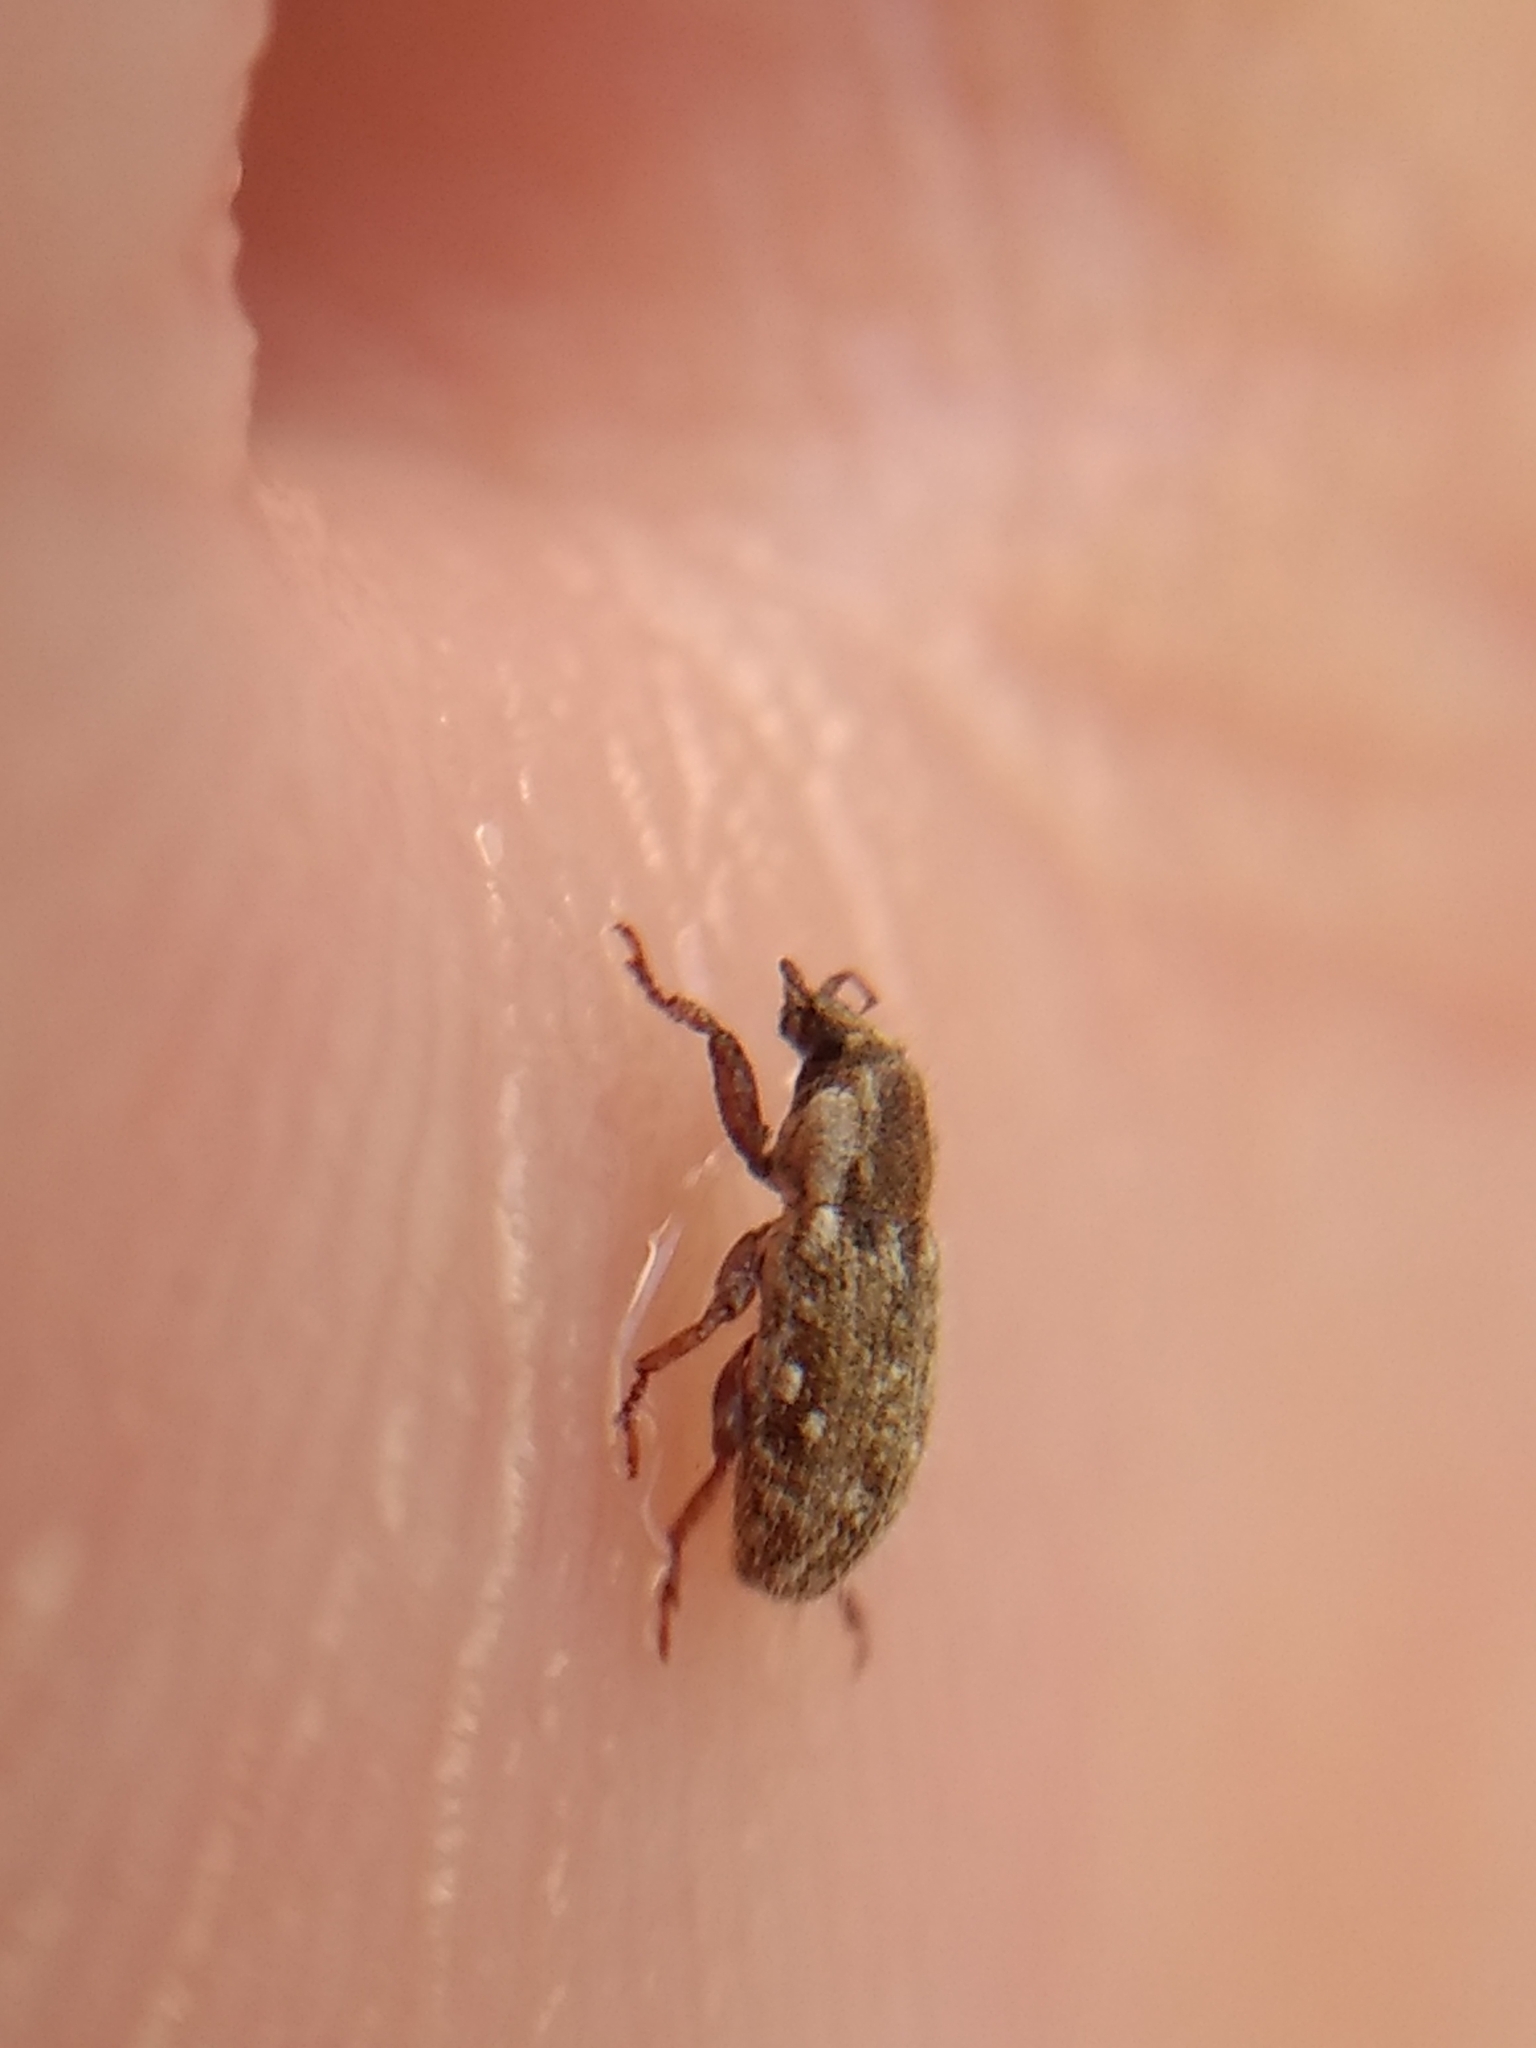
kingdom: Animalia
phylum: Arthropoda
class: Insecta
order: Coleoptera
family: Curculionidae
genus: Microlarinus
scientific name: Microlarinus lareynii
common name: Weevil
